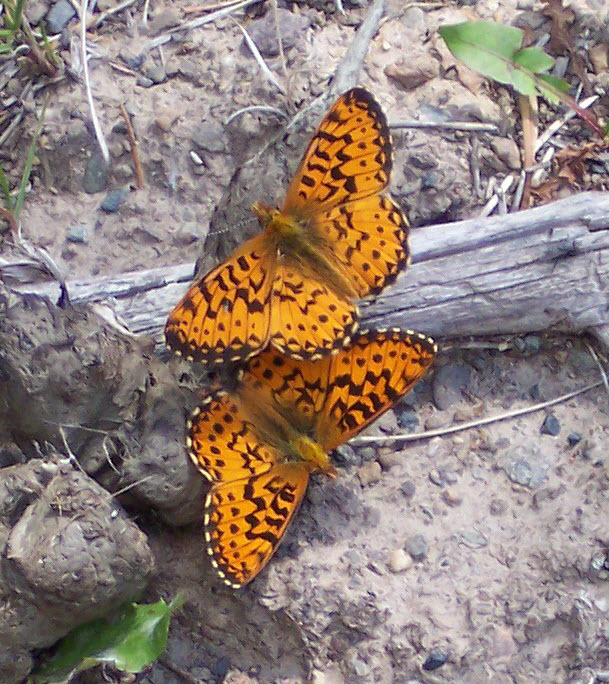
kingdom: Animalia
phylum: Arthropoda
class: Insecta
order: Lepidoptera
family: Nymphalidae
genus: Boloria
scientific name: Boloria
